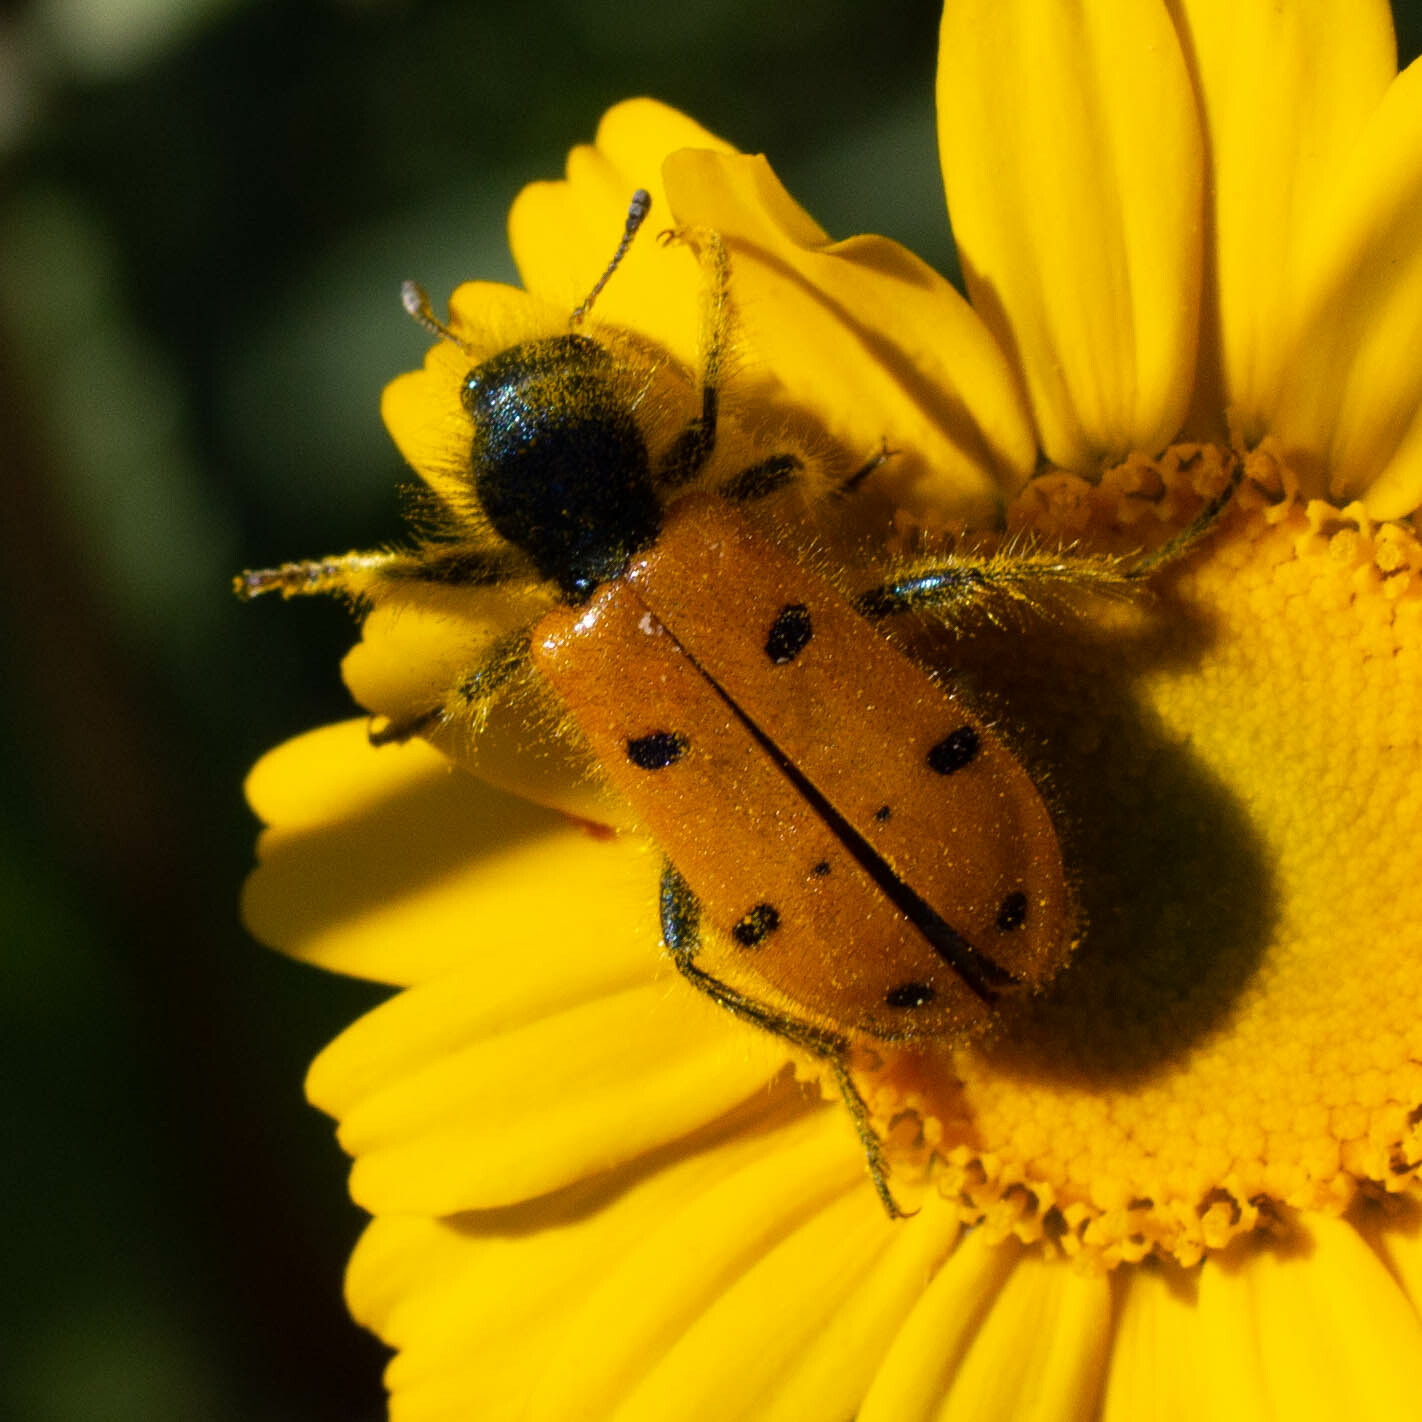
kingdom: Animalia
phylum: Arthropoda
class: Insecta
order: Coleoptera
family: Cleridae
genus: Trichodes
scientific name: Trichodes octopunctatus
